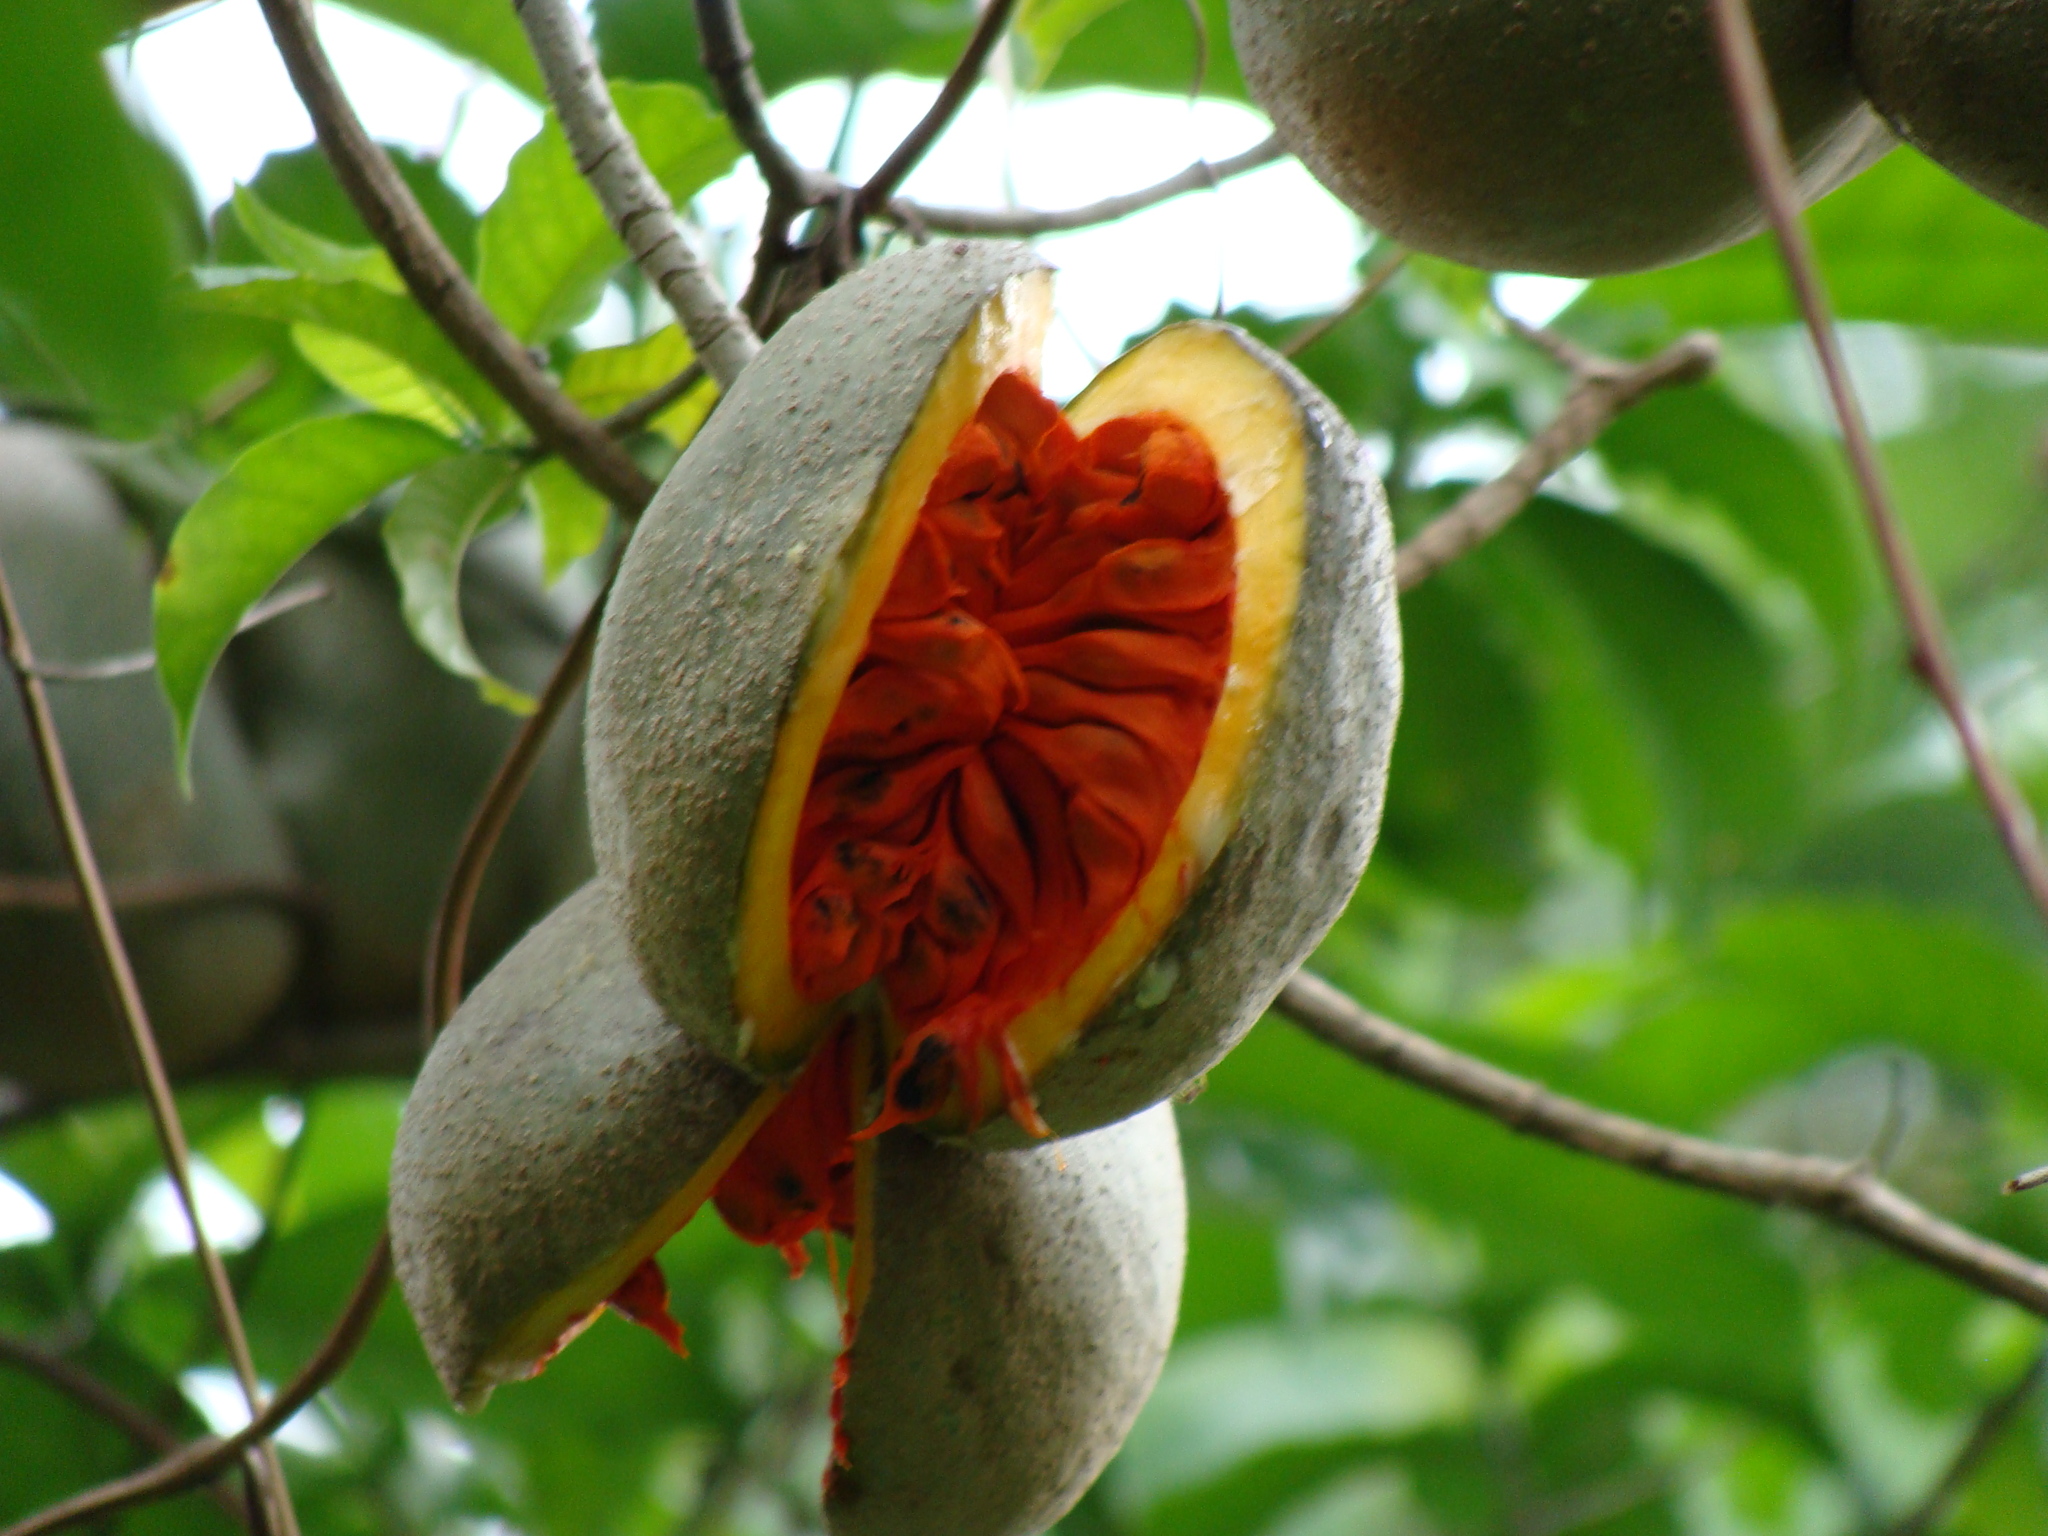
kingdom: Plantae
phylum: Tracheophyta
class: Magnoliopsida
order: Gentianales
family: Apocynaceae
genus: Tabernaemontana
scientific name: Tabernaemontana donnell-smithii
